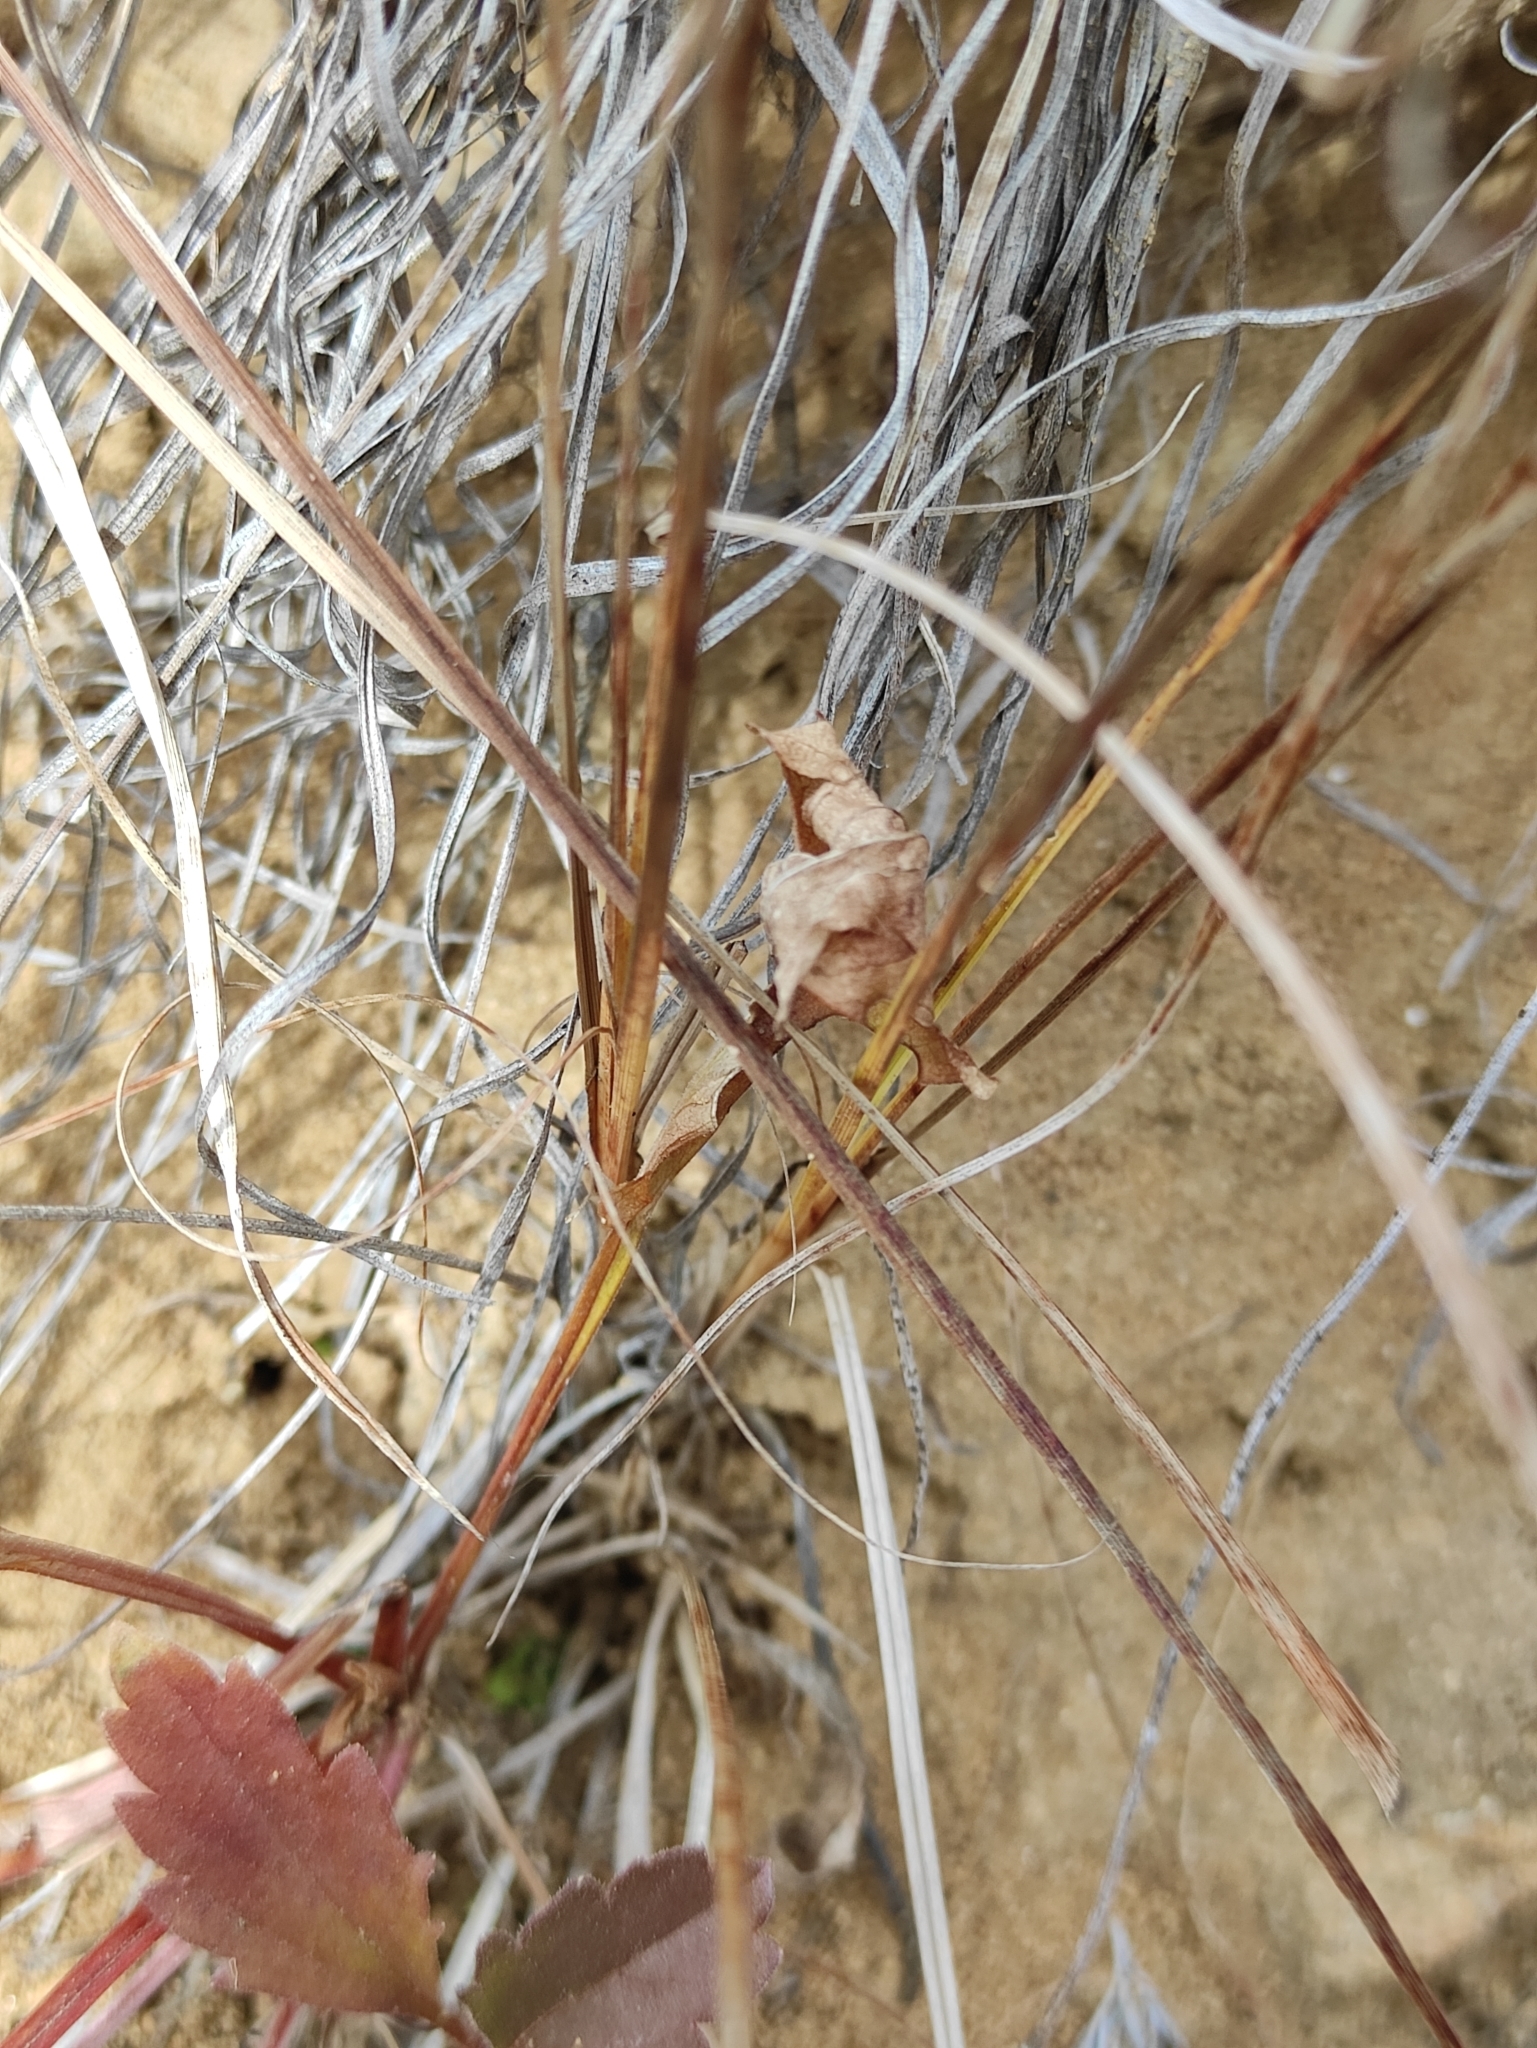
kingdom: Plantae
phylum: Tracheophyta
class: Liliopsida
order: Poales
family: Cyperaceae
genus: Carex
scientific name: Carex korshinskyi
